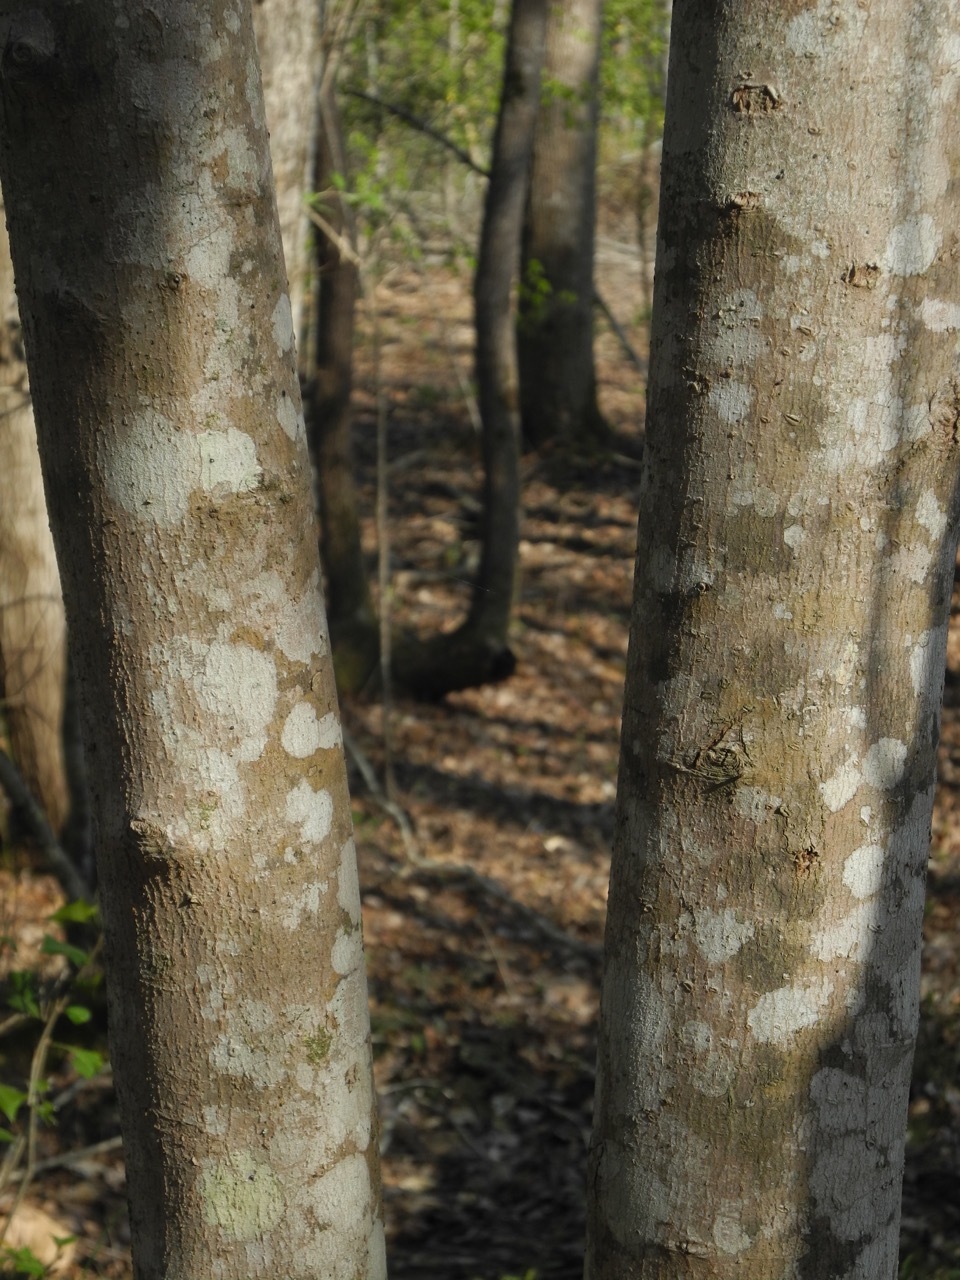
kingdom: Plantae
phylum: Tracheophyta
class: Magnoliopsida
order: Sapindales
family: Sapindaceae
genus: Acer
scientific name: Acer freemanii
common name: Freeman maple
